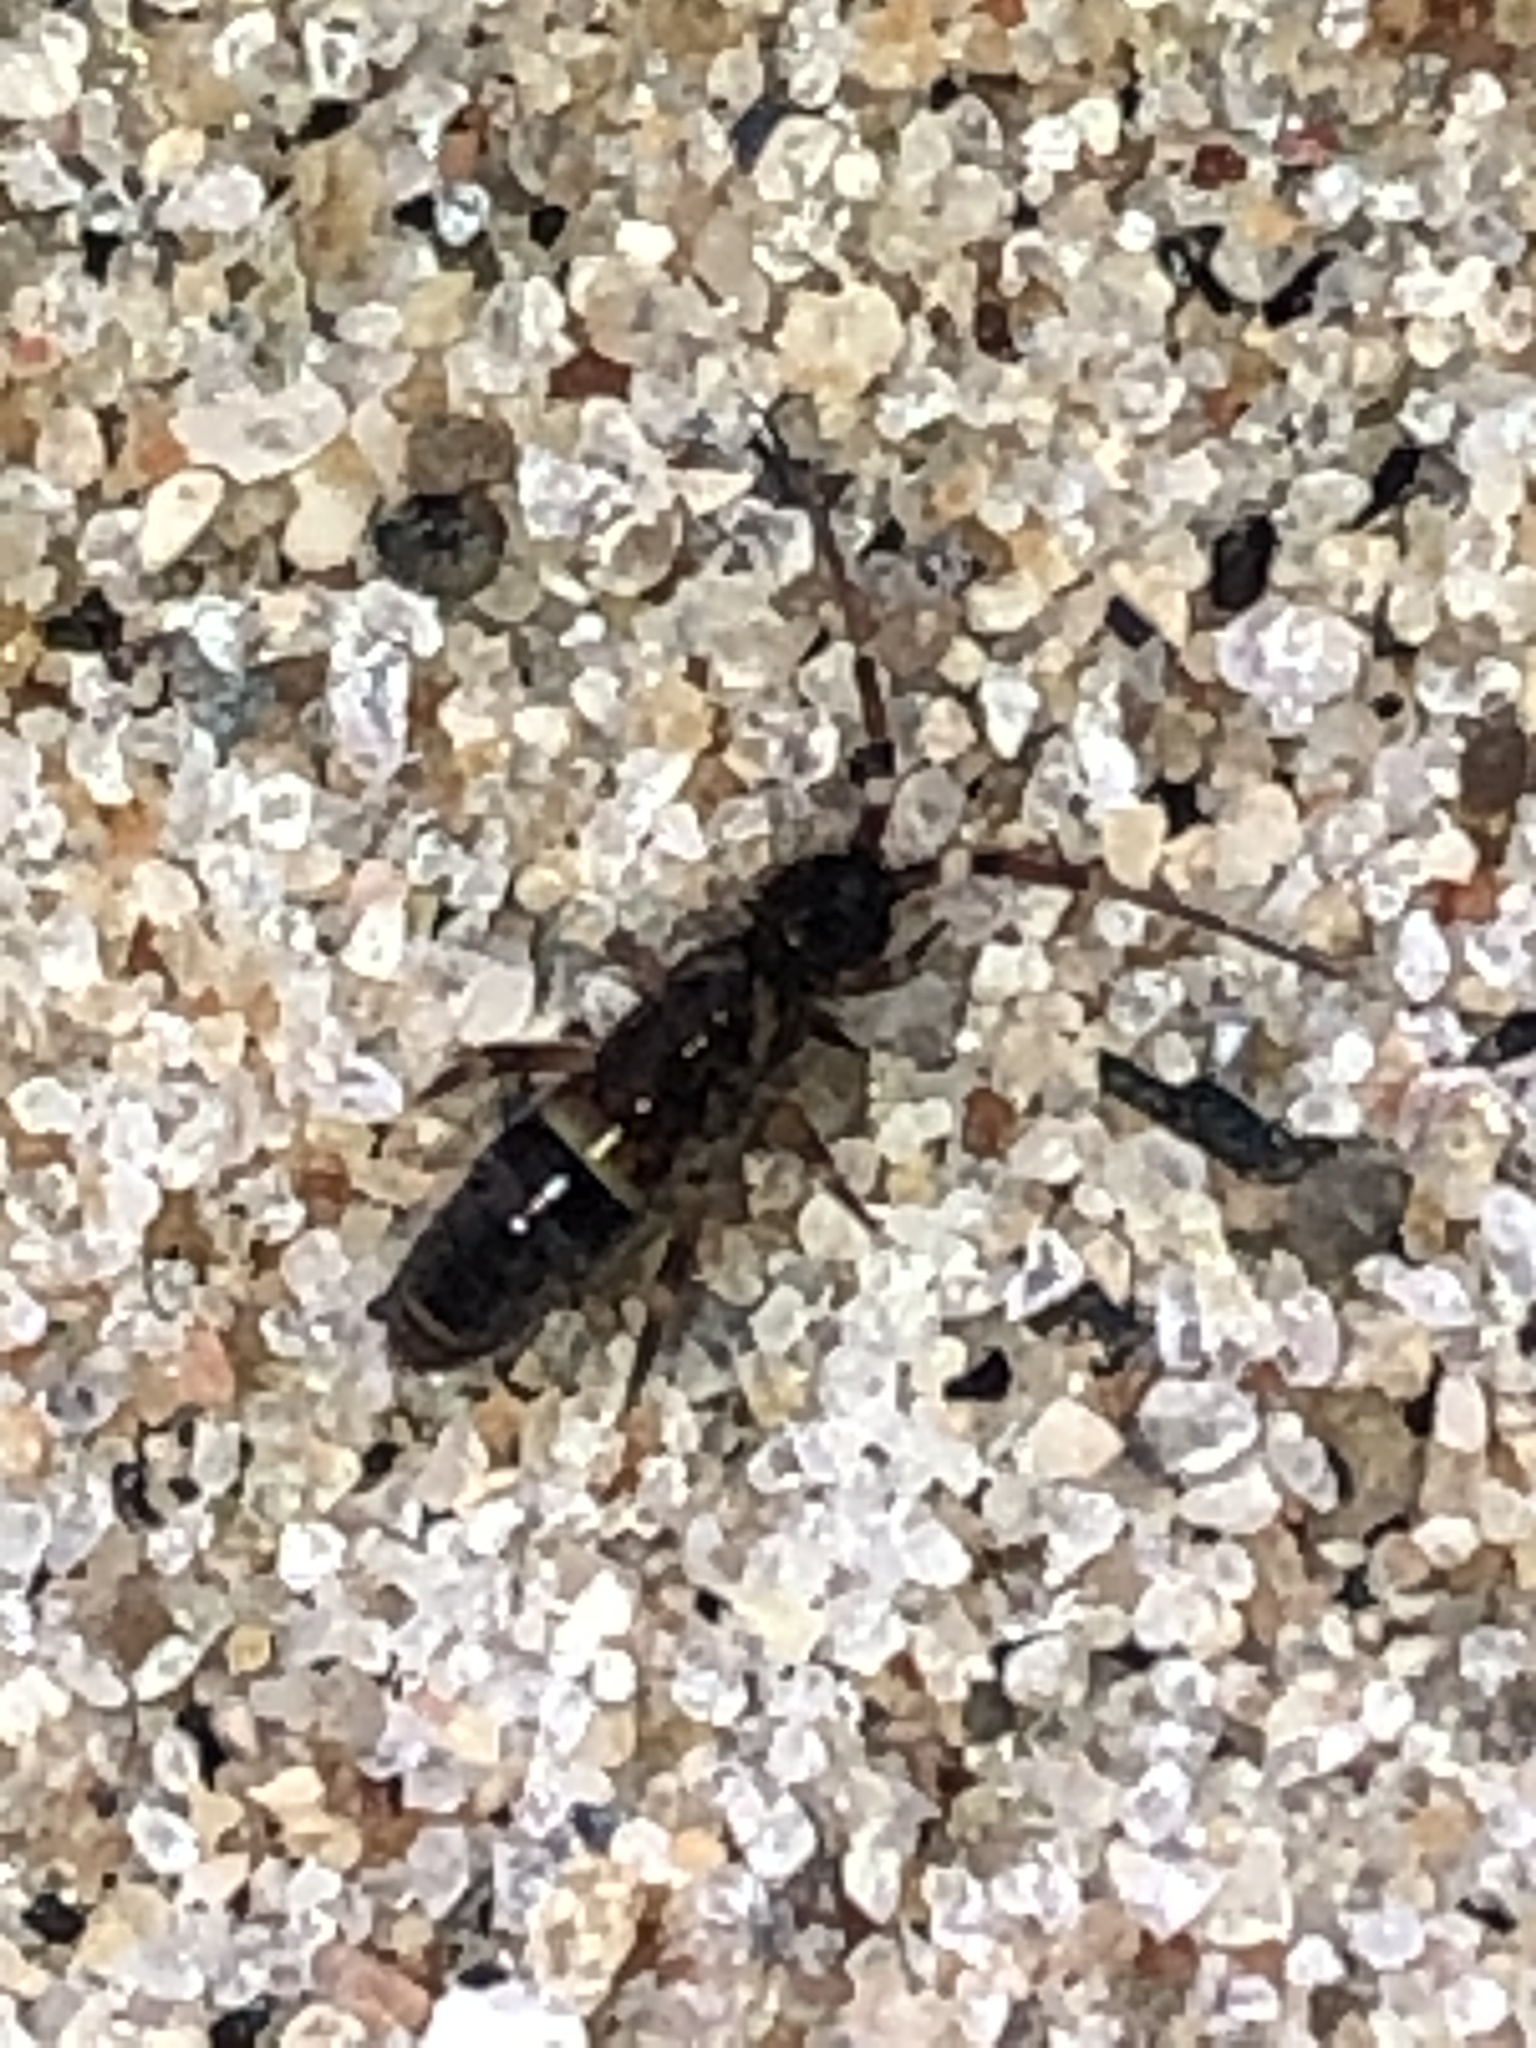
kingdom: Animalia
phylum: Arthropoda
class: Collembola
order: Entomobryomorpha
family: Orchesellidae
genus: Orchesella
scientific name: Orchesella cincta
